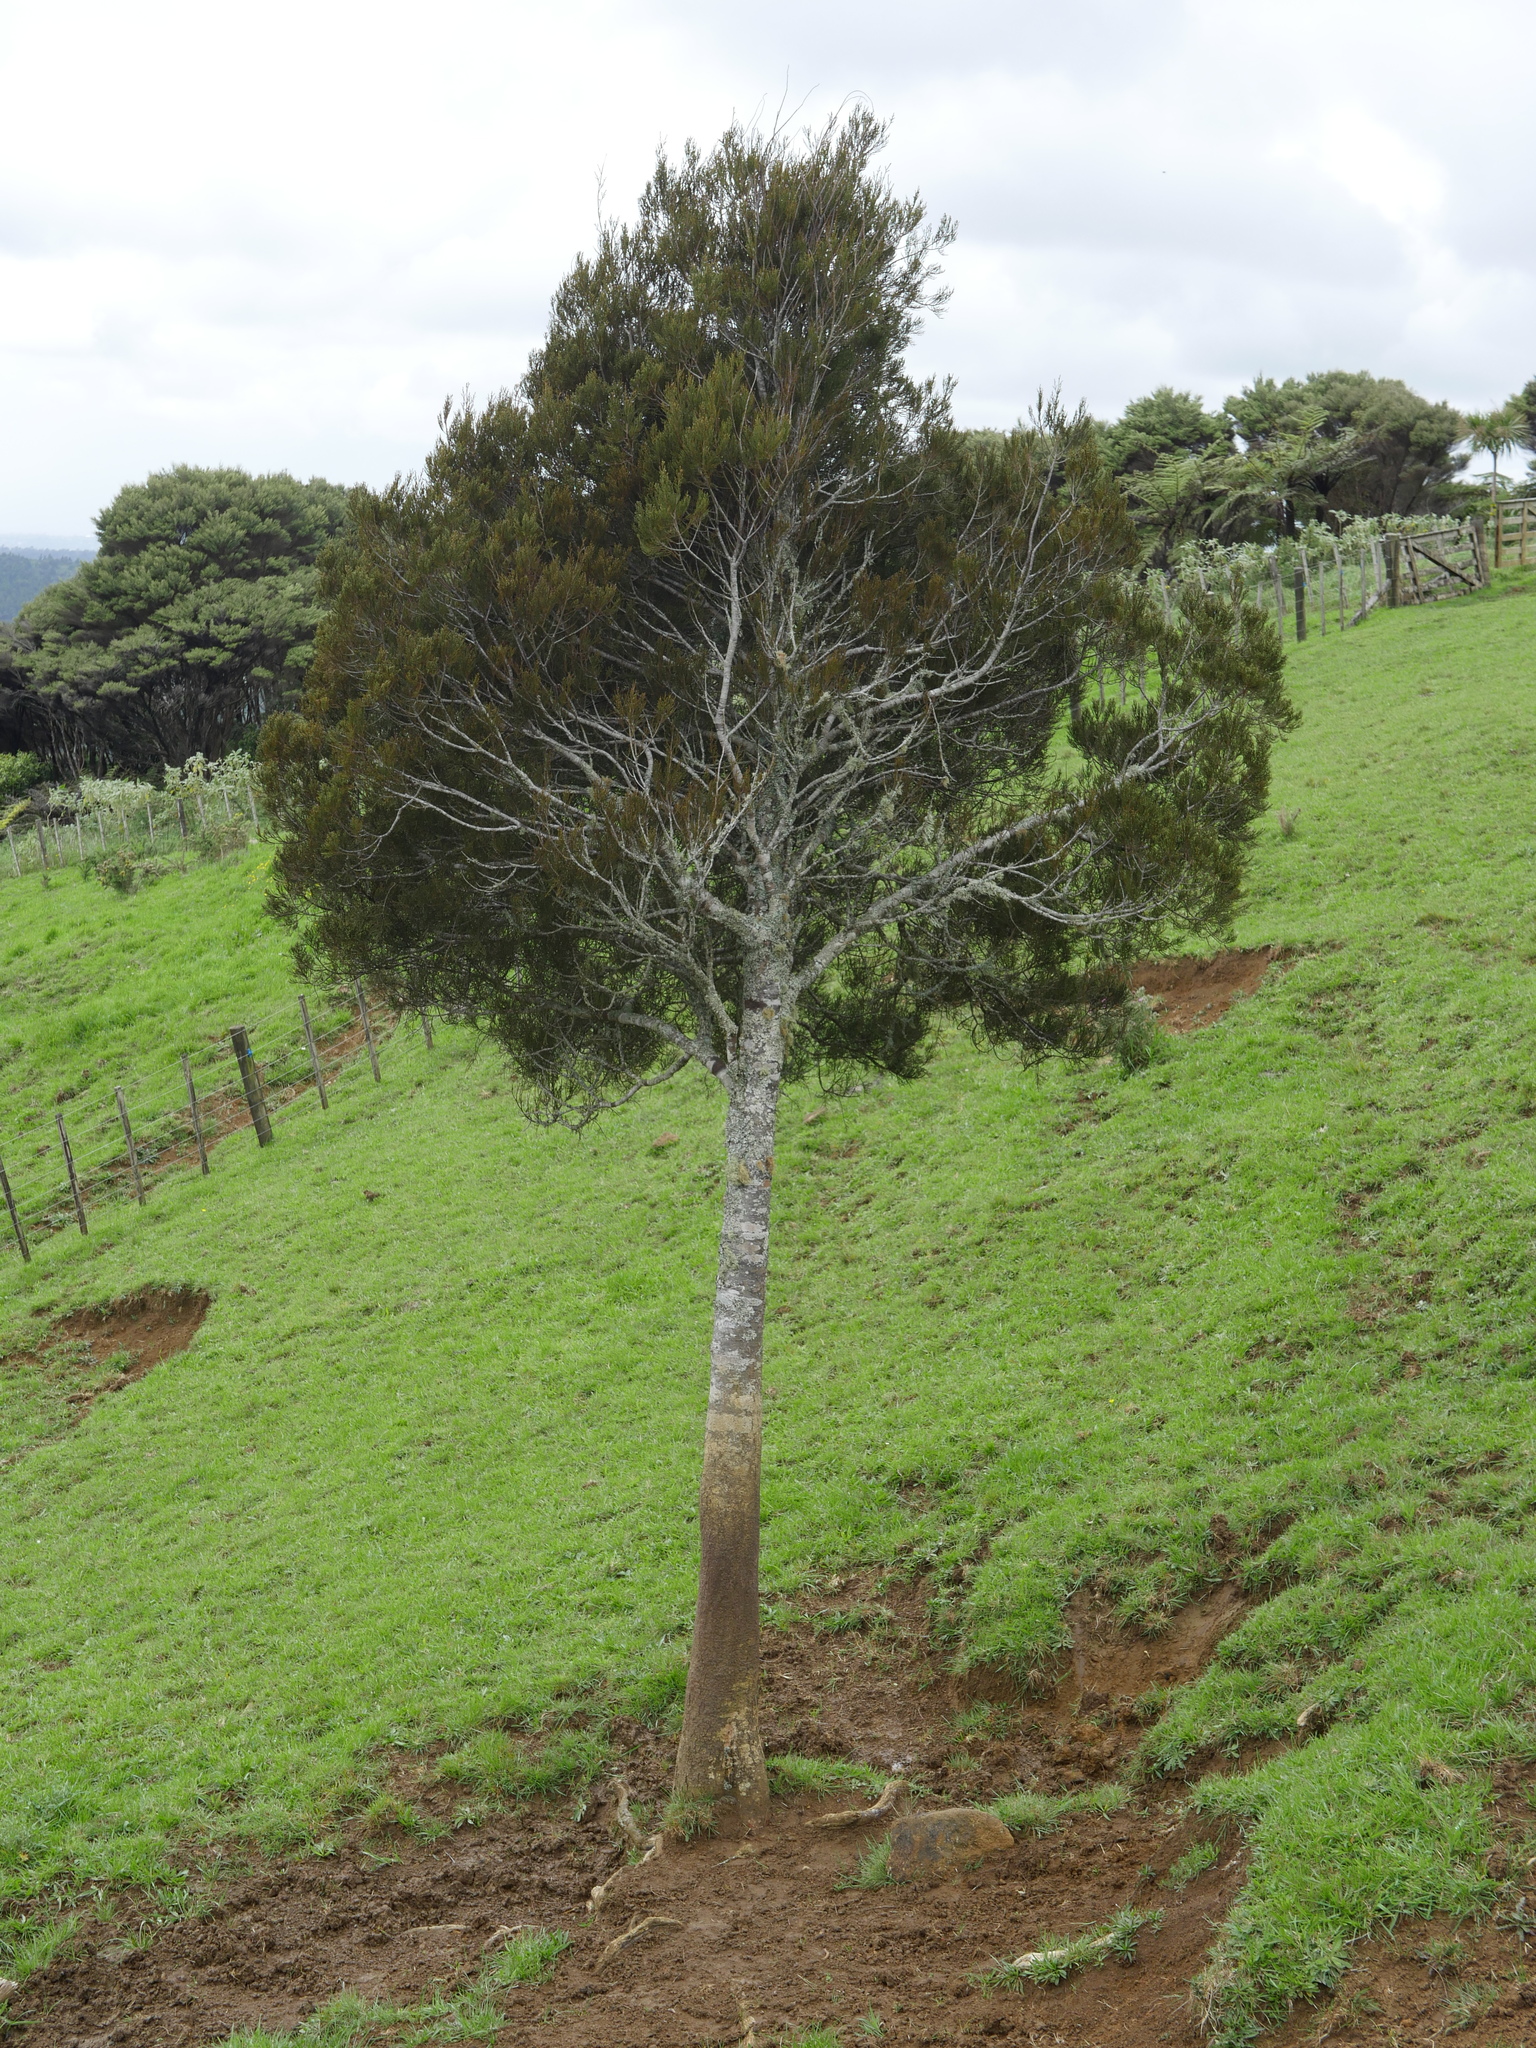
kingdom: Plantae
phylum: Tracheophyta
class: Pinopsida
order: Pinales
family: Podocarpaceae
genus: Dacrycarpus
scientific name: Dacrycarpus dacrydioides
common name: White pine
